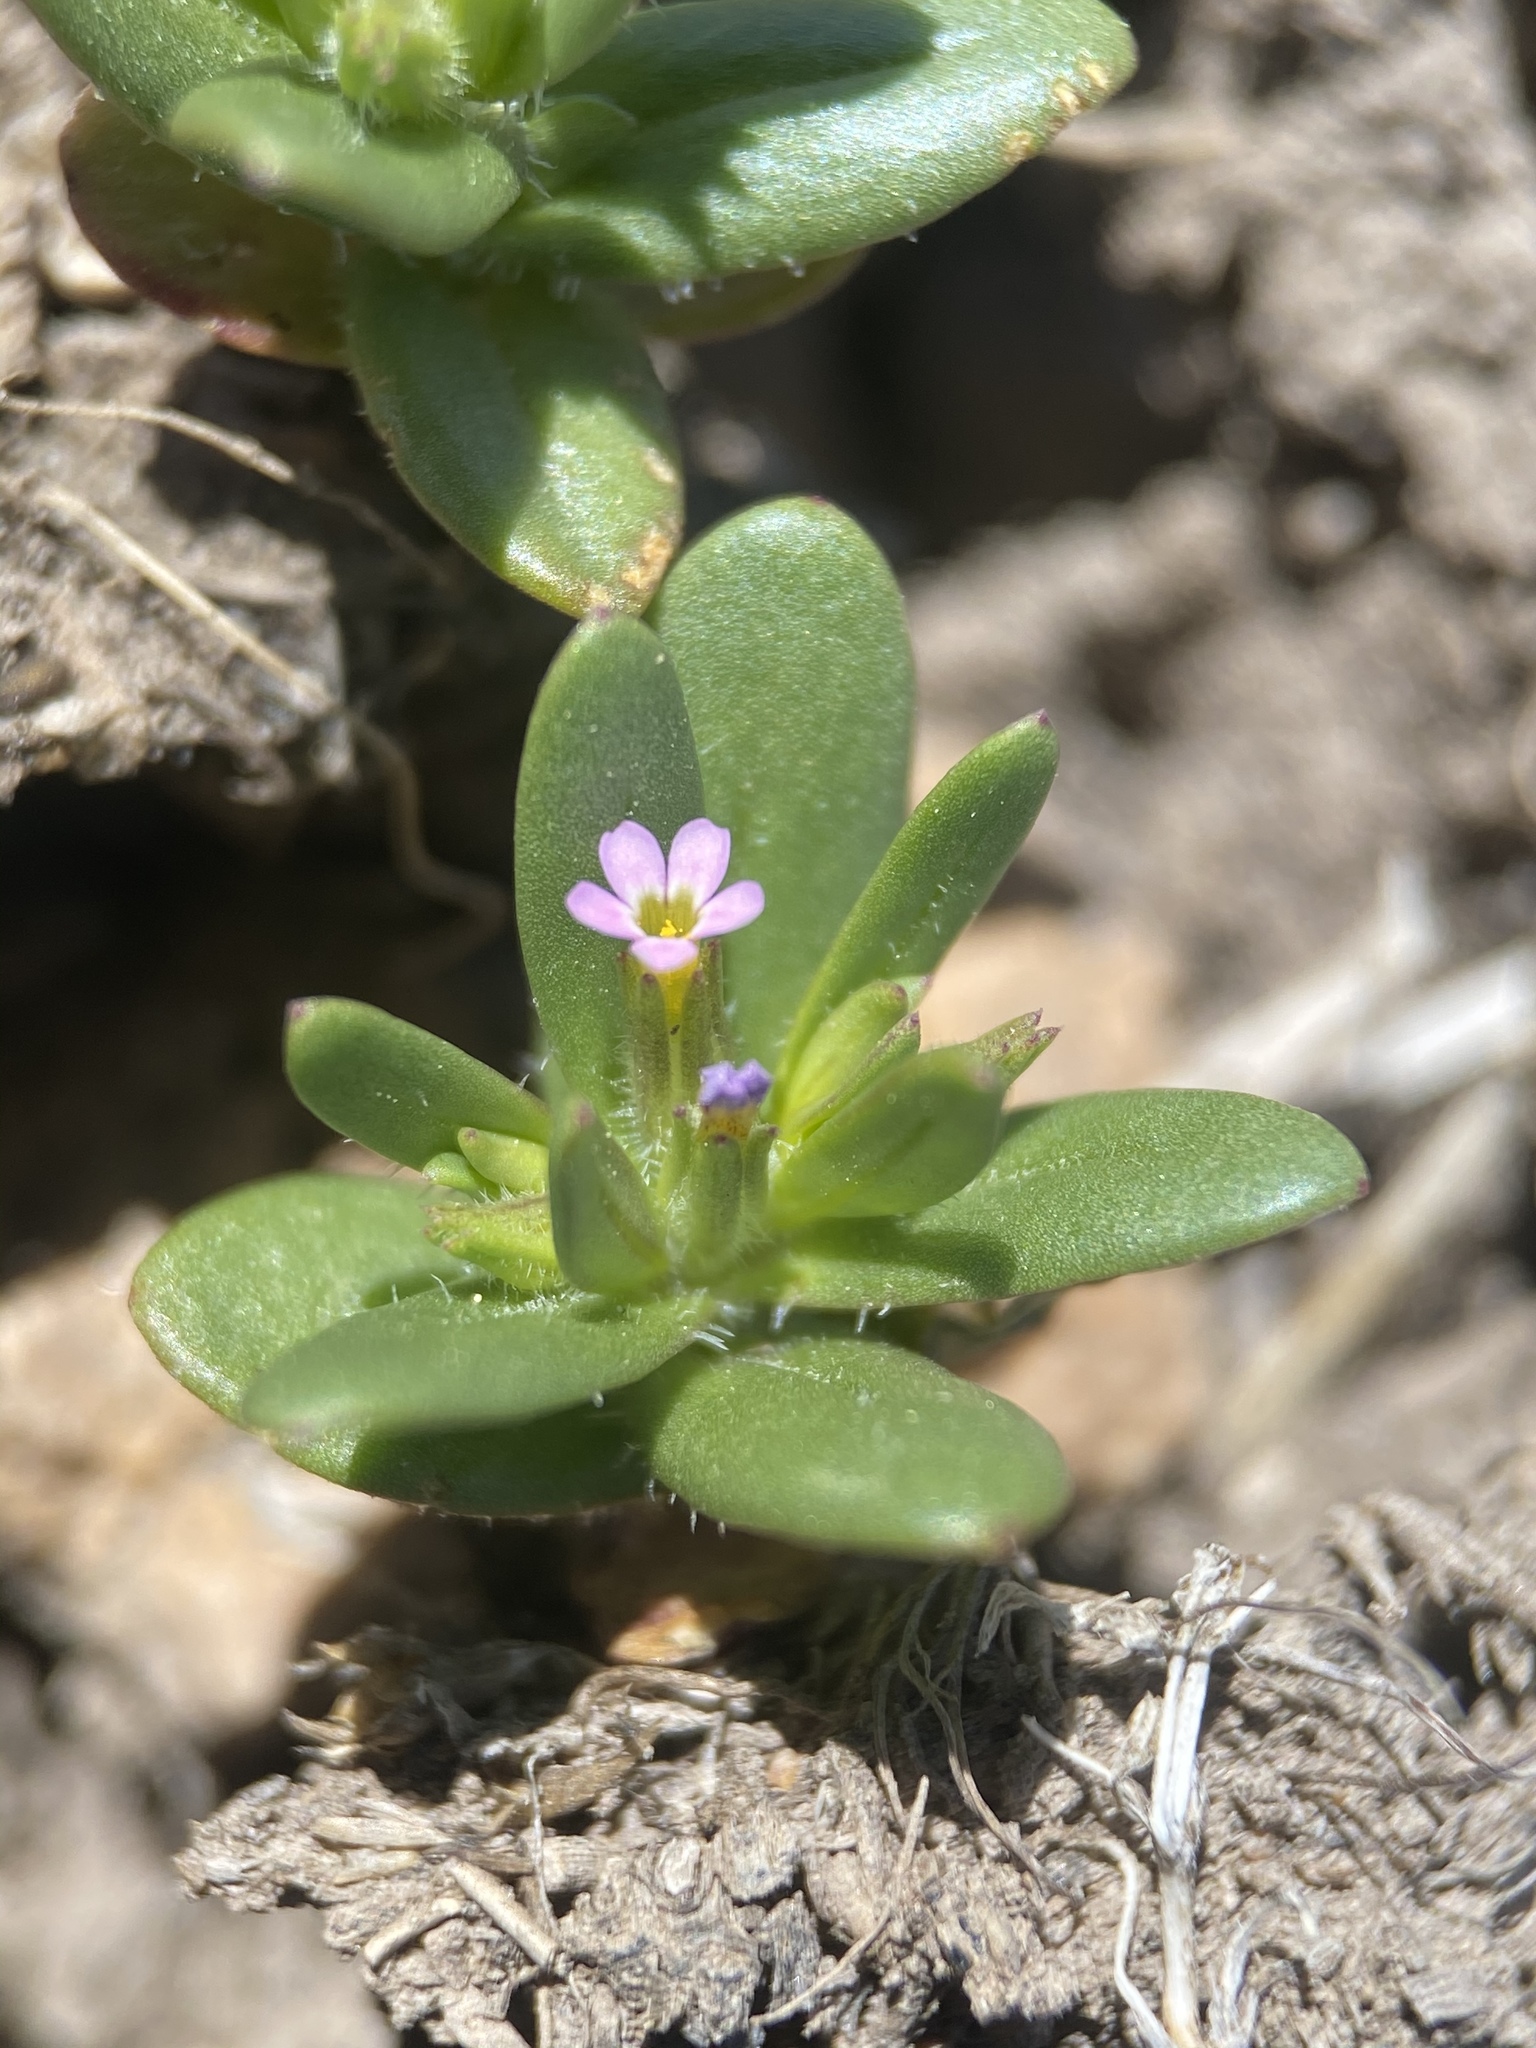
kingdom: Plantae
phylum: Tracheophyta
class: Magnoliopsida
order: Ericales
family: Polemoniaceae
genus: Phlox
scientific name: Phlox gracilis
